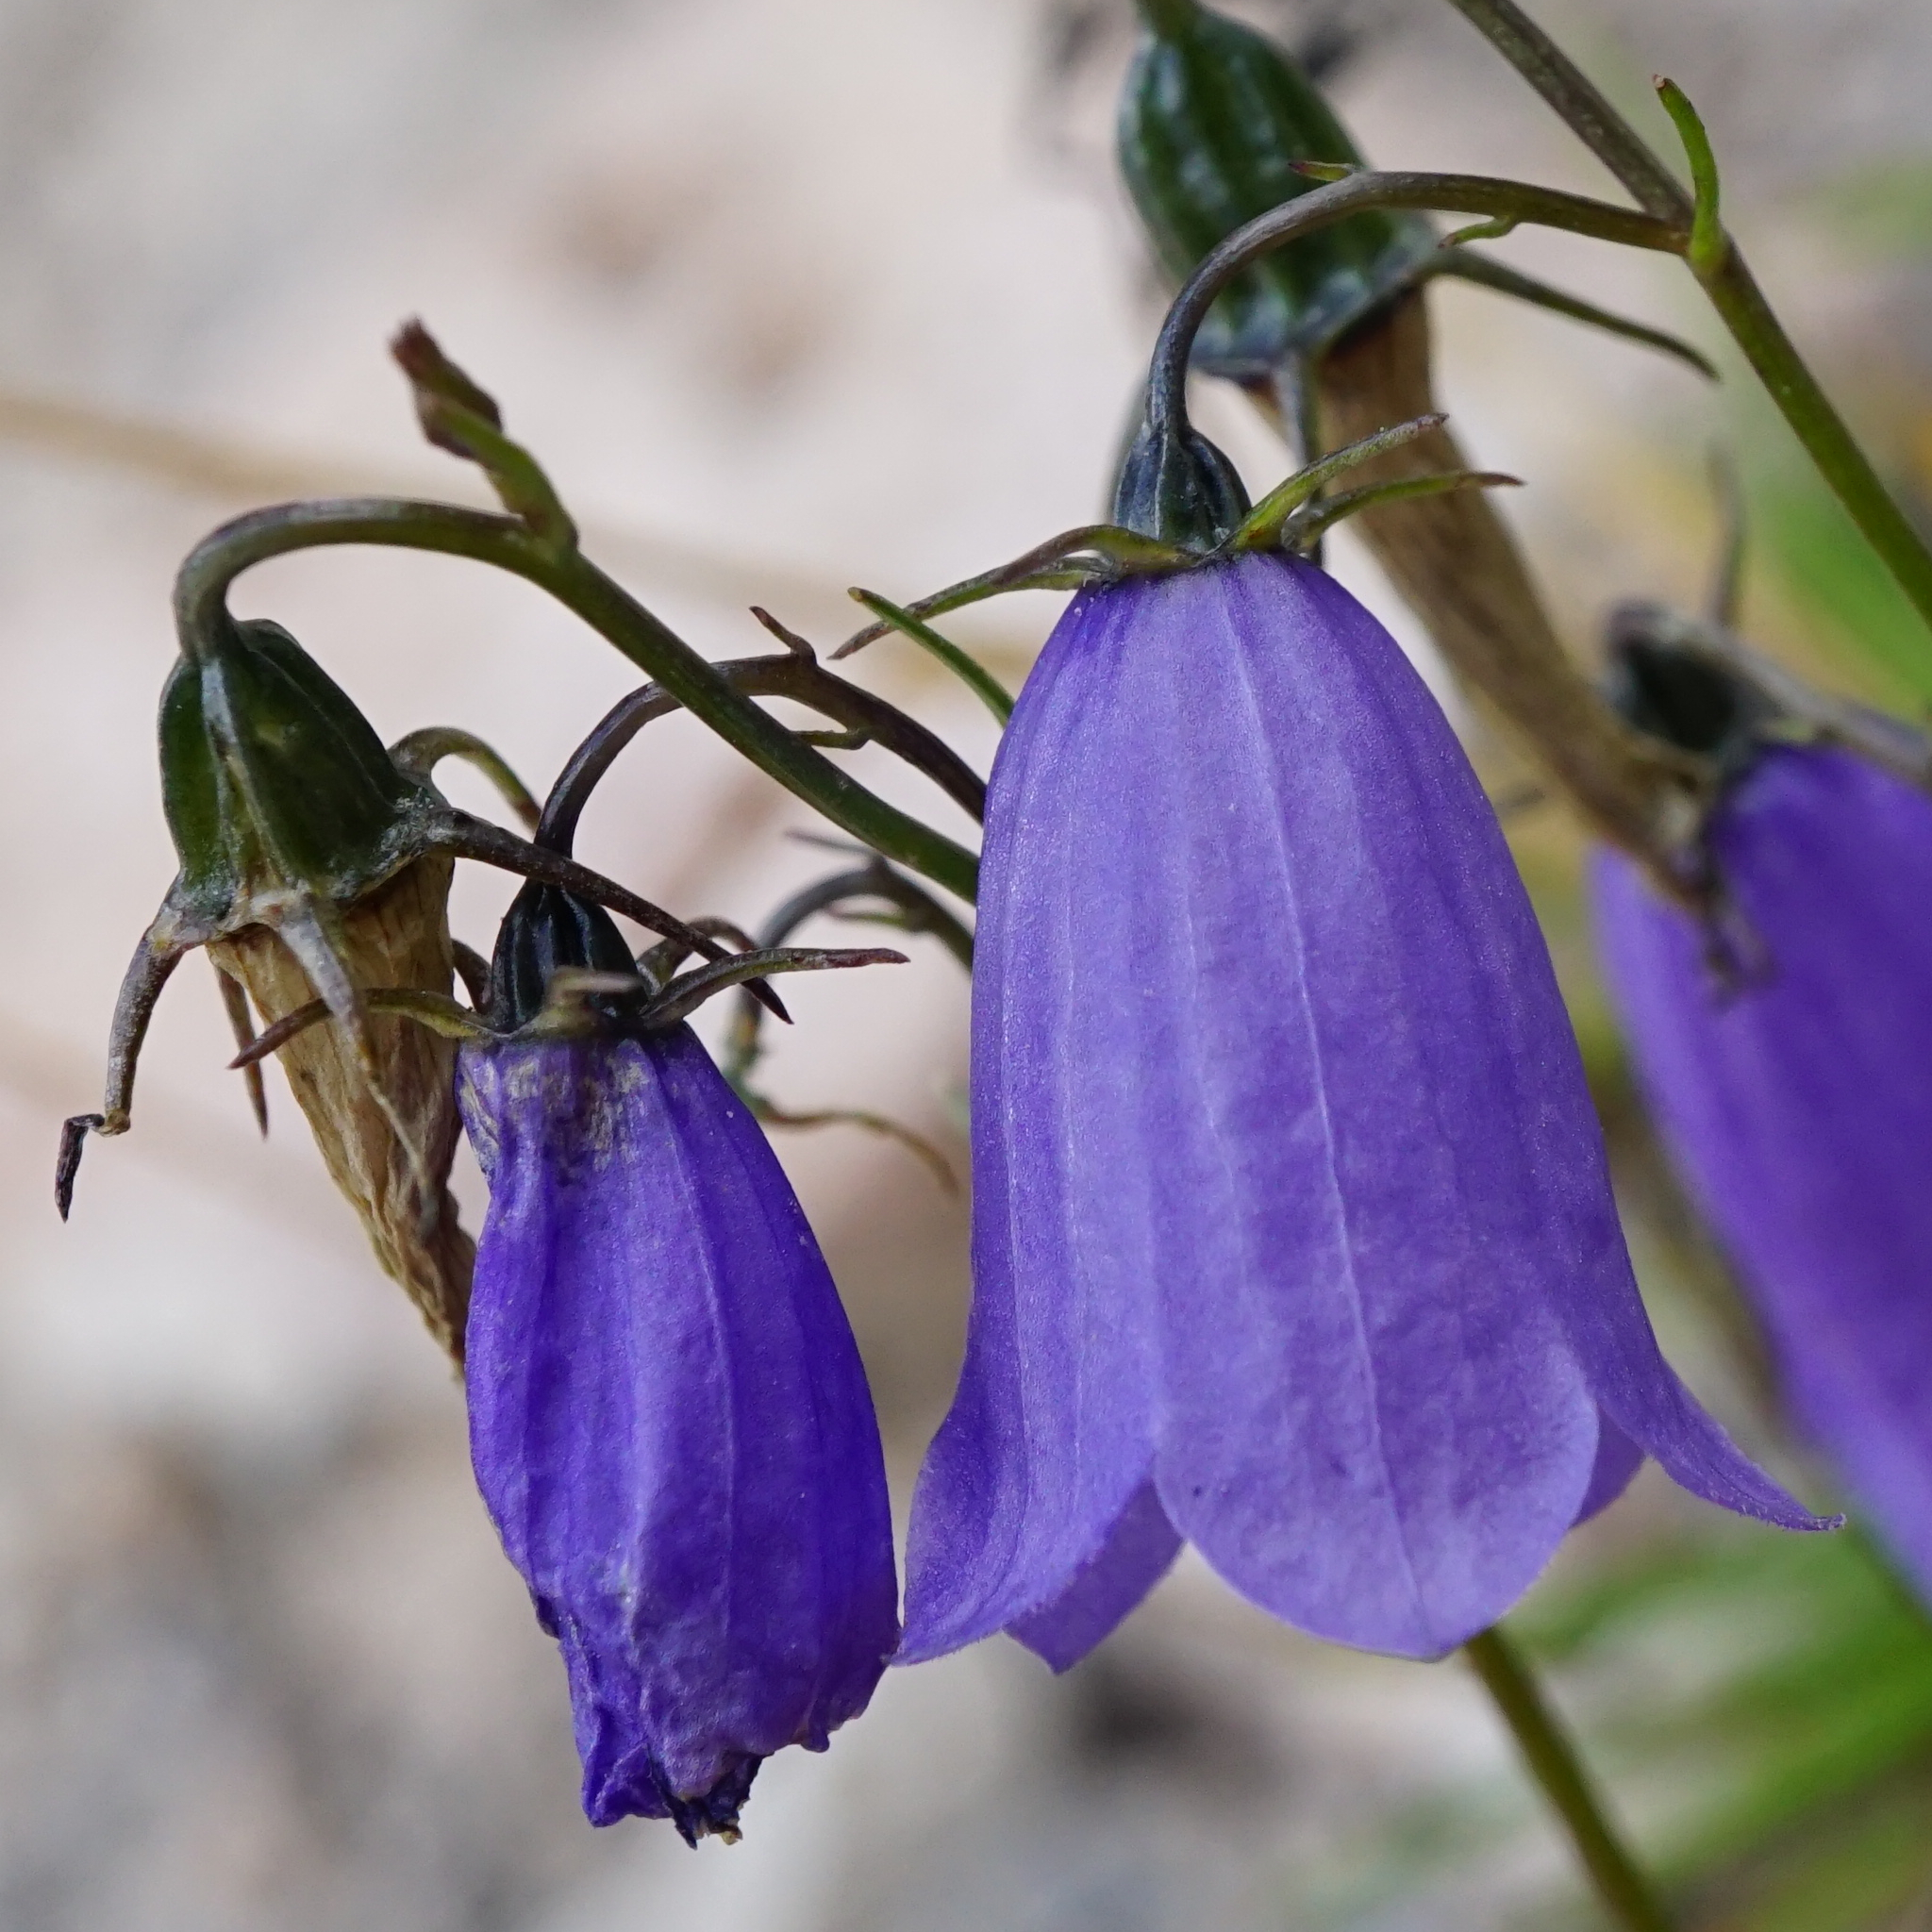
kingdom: Plantae
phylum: Tracheophyta
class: Magnoliopsida
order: Asterales
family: Campanulaceae
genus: Campanula
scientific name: Campanula cochleariifolia
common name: Fairies'-thimbles
